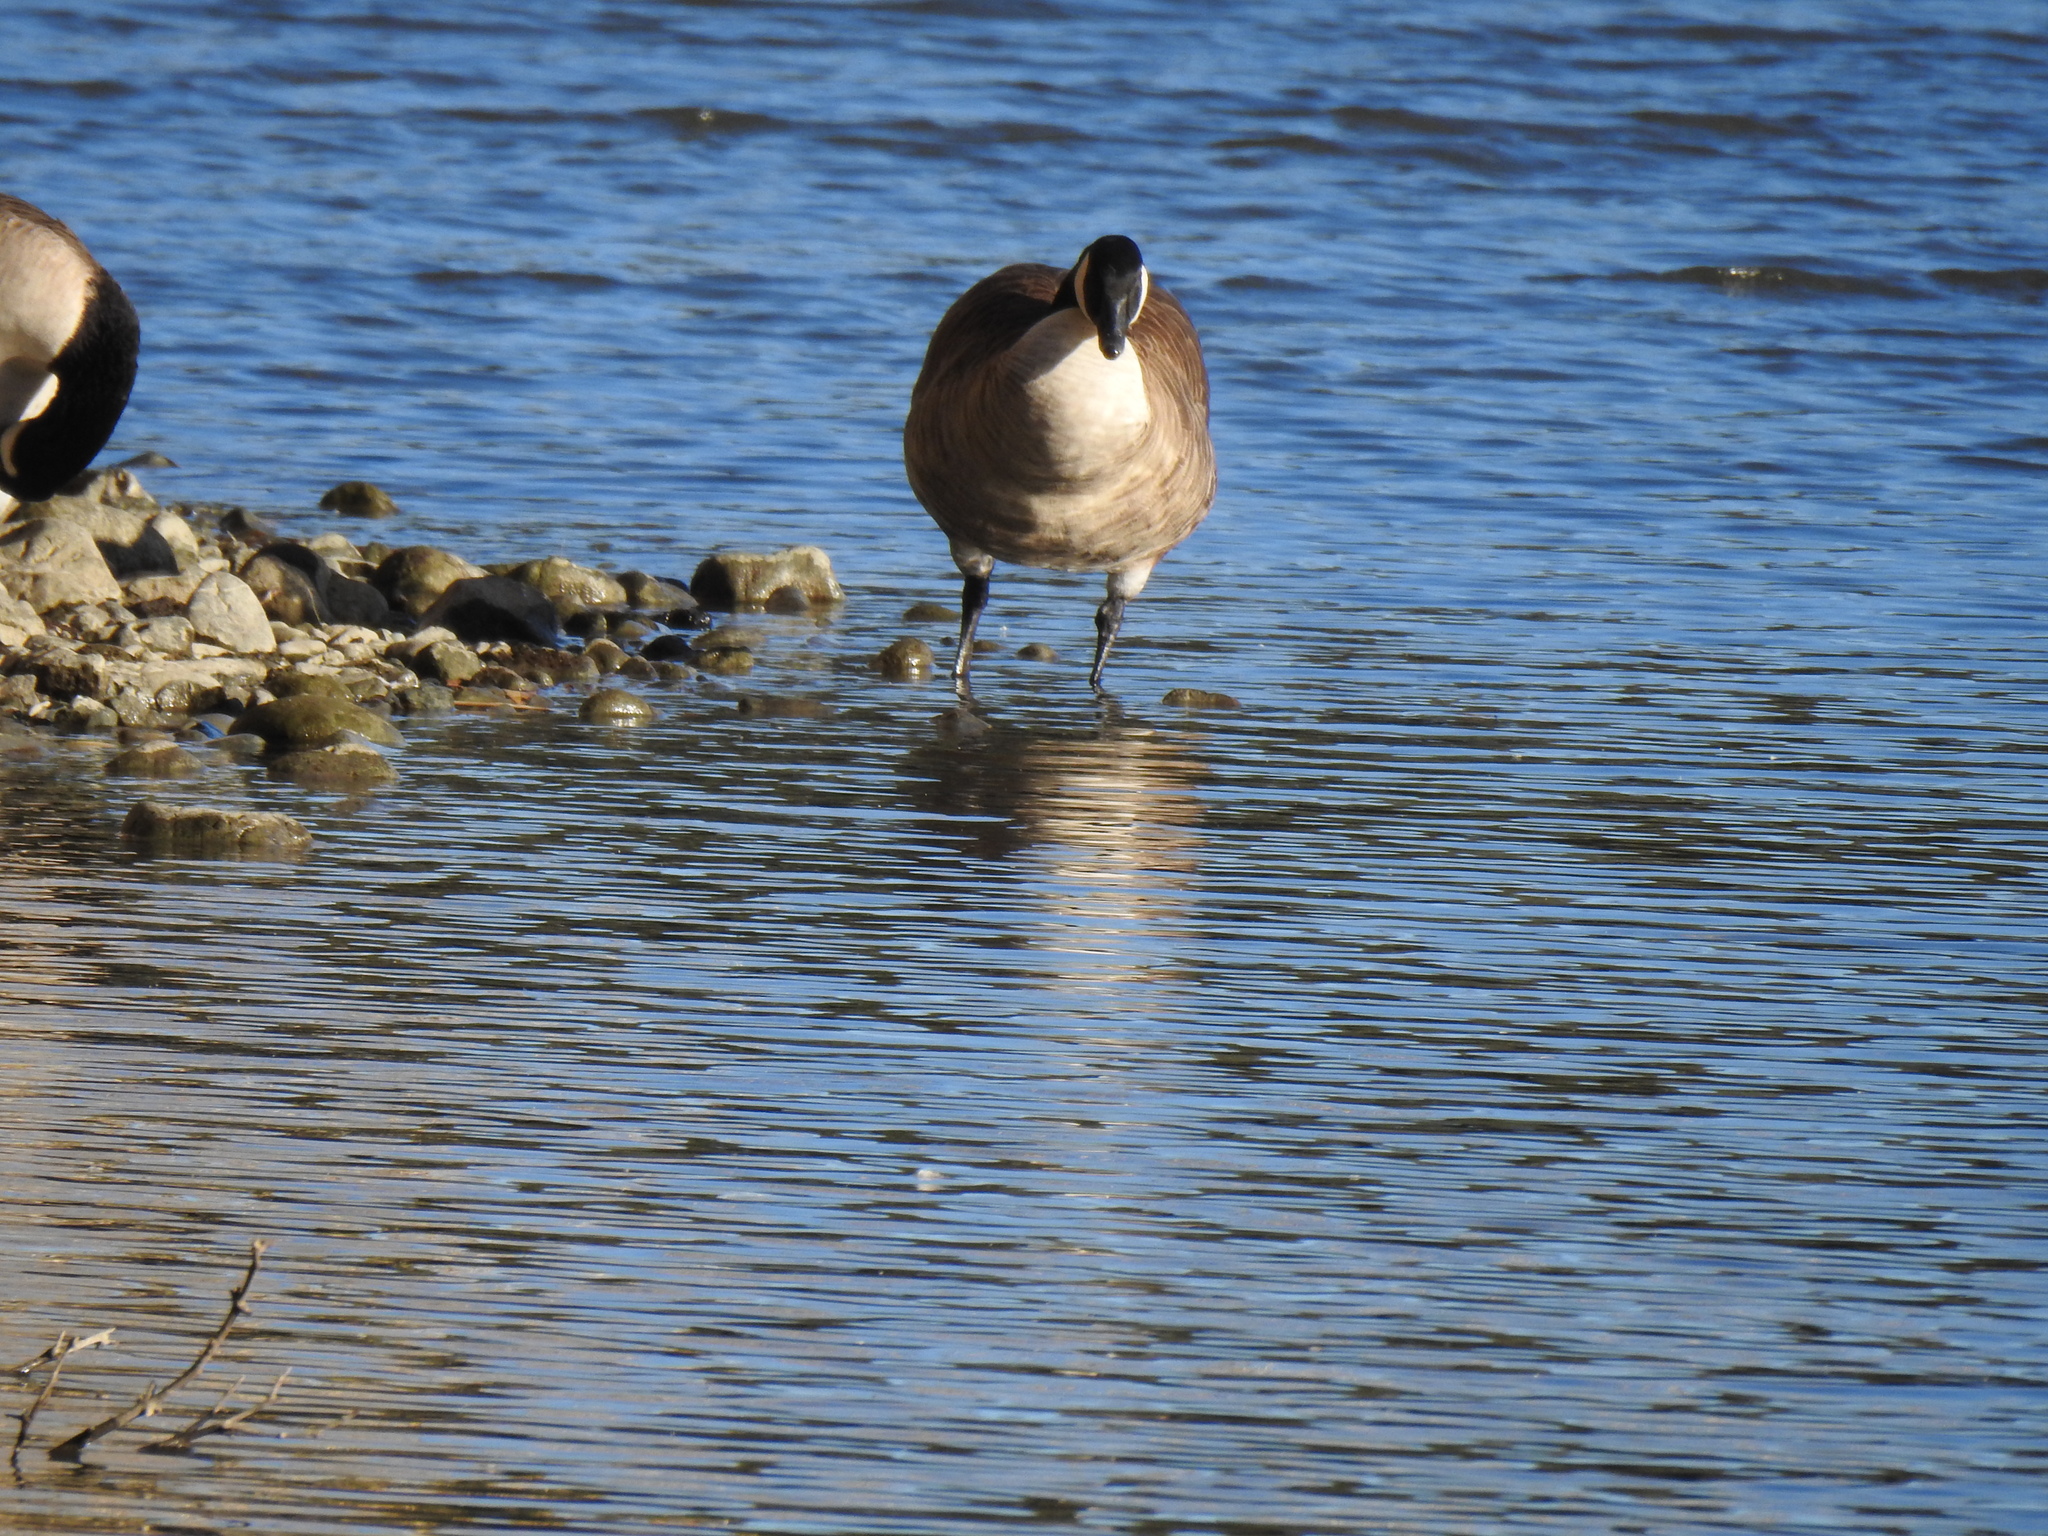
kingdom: Animalia
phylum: Chordata
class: Aves
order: Anseriformes
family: Anatidae
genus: Branta
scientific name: Branta canadensis
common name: Canada goose
